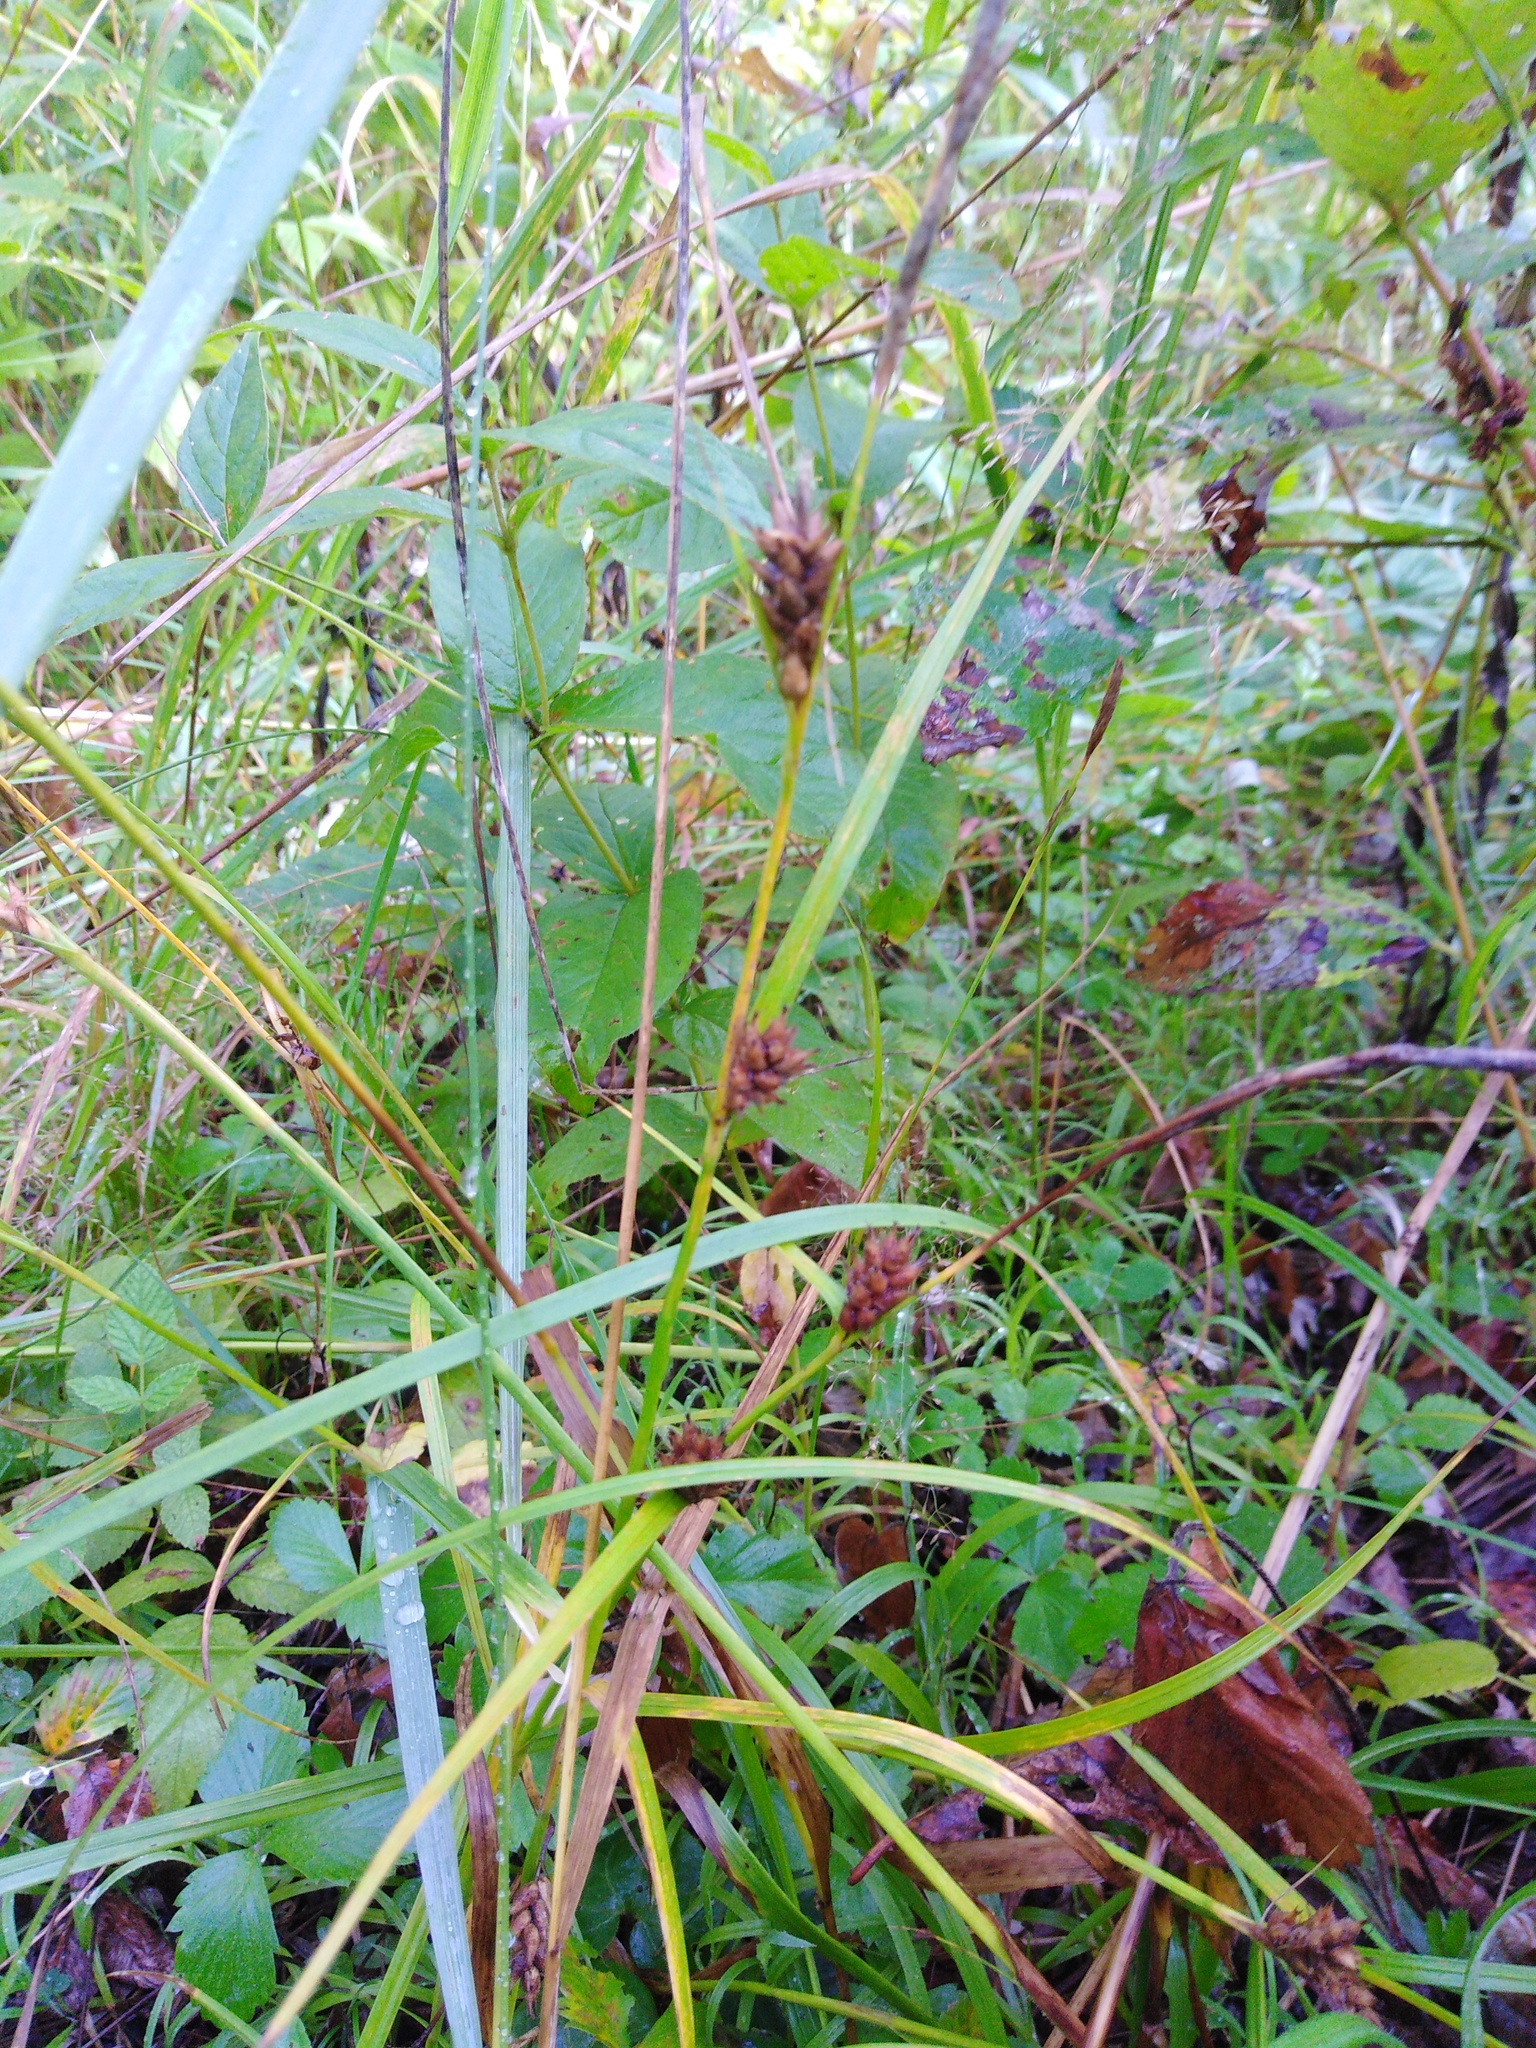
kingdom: Plantae
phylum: Tracheophyta
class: Liliopsida
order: Poales
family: Cyperaceae
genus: Carex
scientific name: Carex hirta
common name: Hairy sedge
